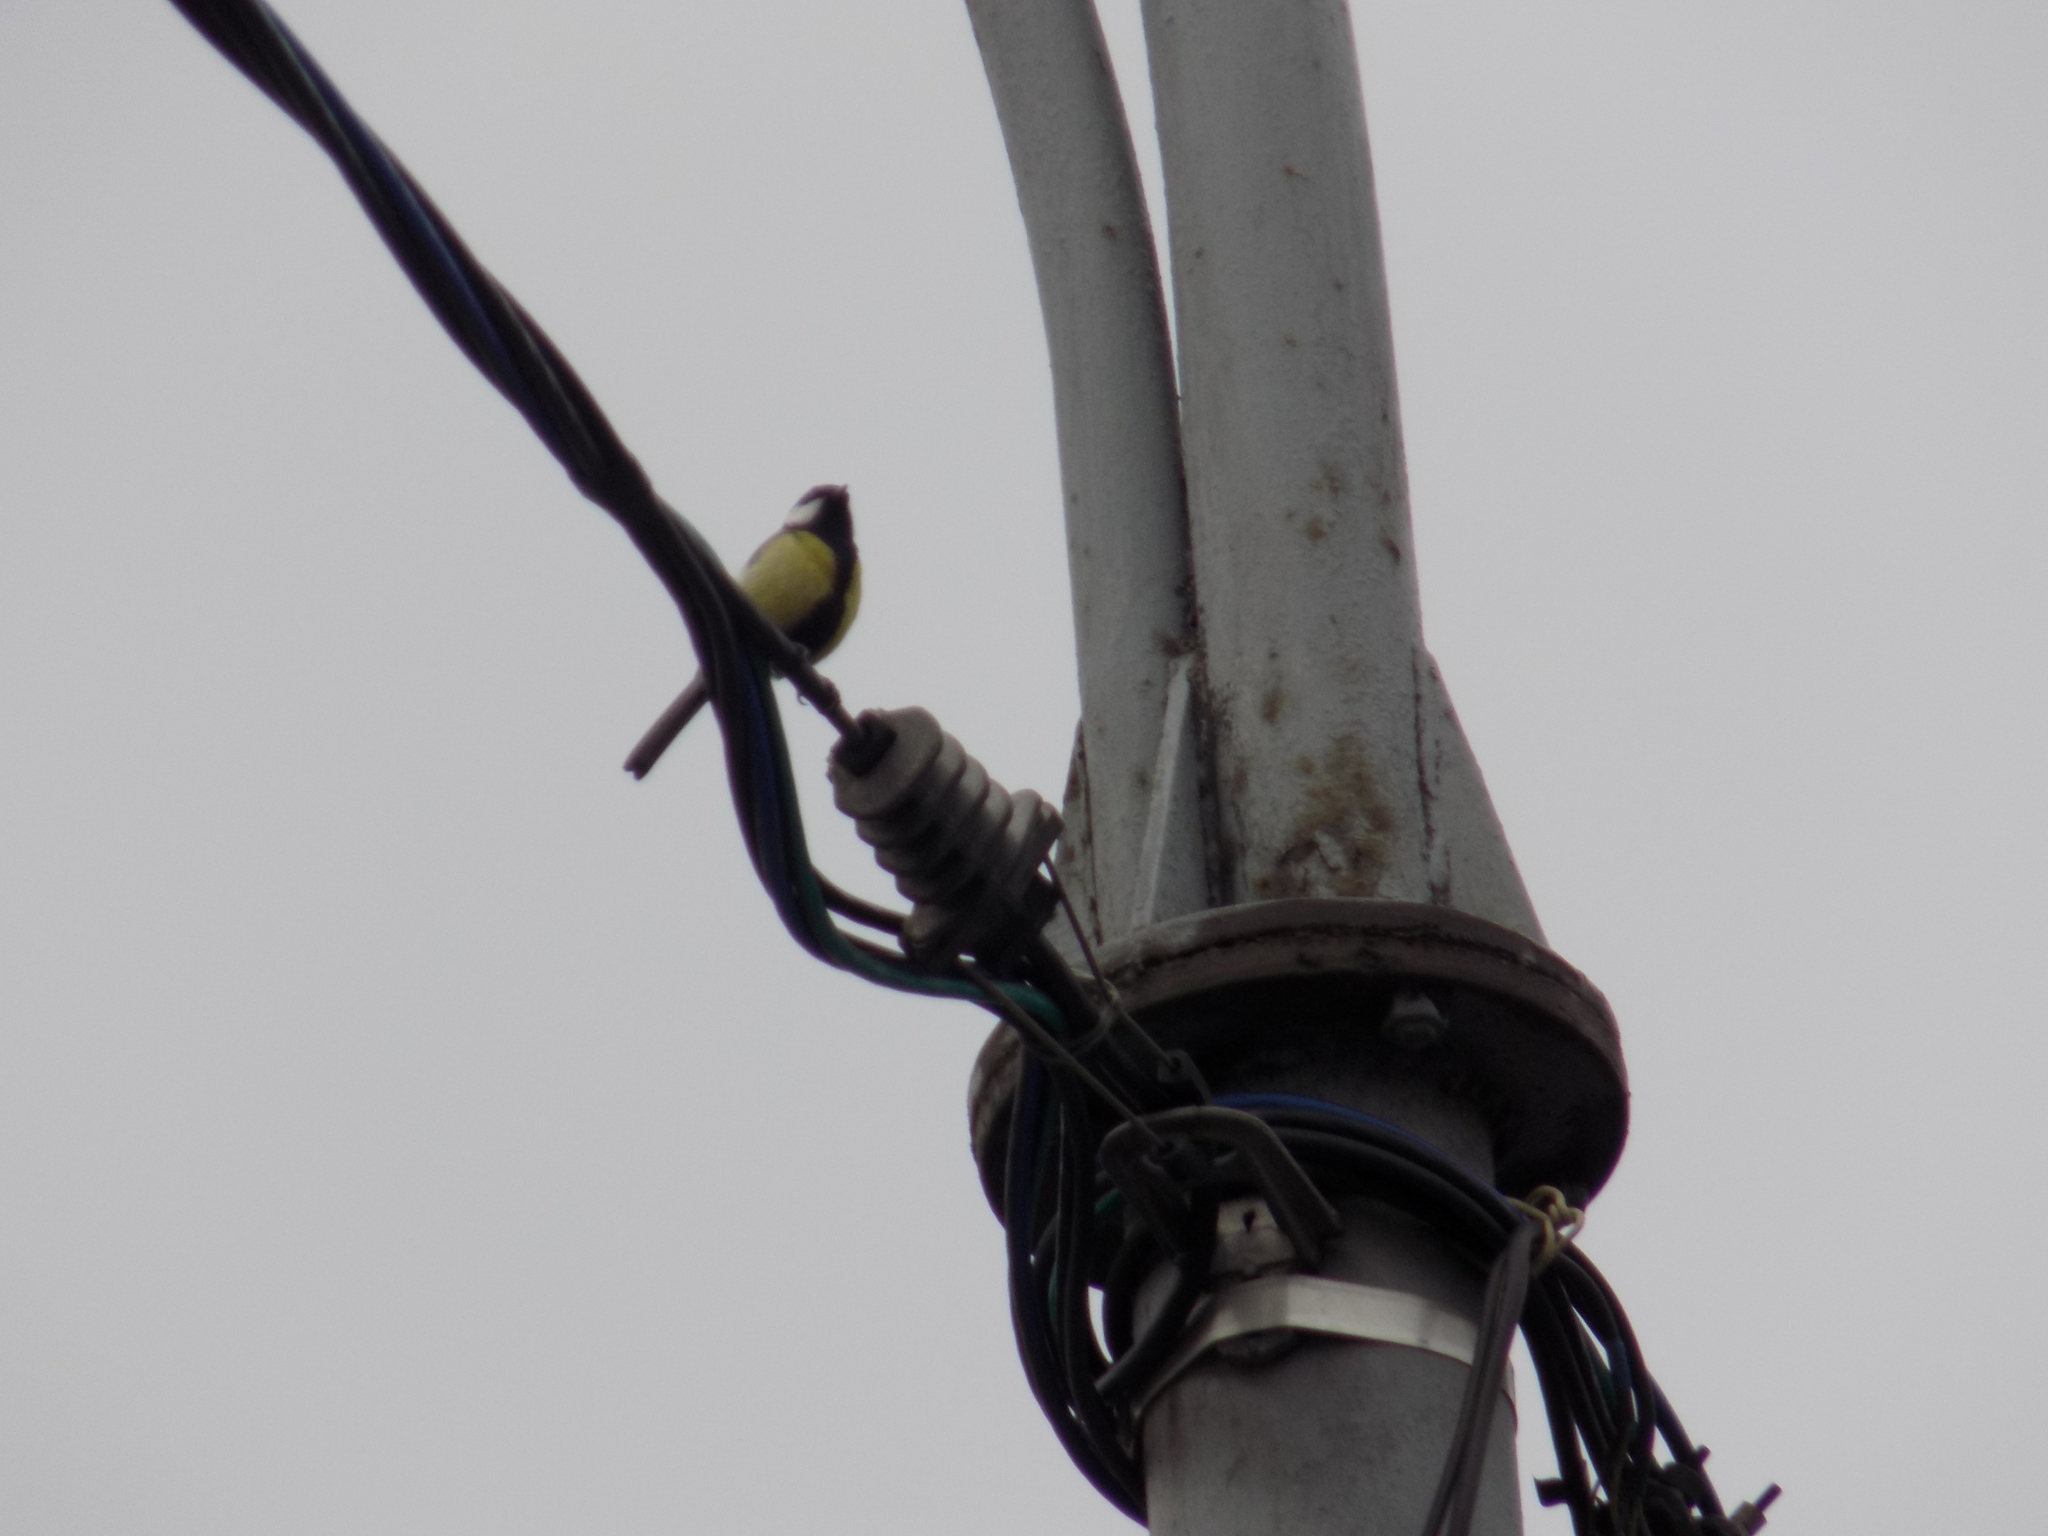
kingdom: Animalia
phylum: Chordata
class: Aves
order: Passeriformes
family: Paridae
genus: Parus
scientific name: Parus major
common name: Great tit
